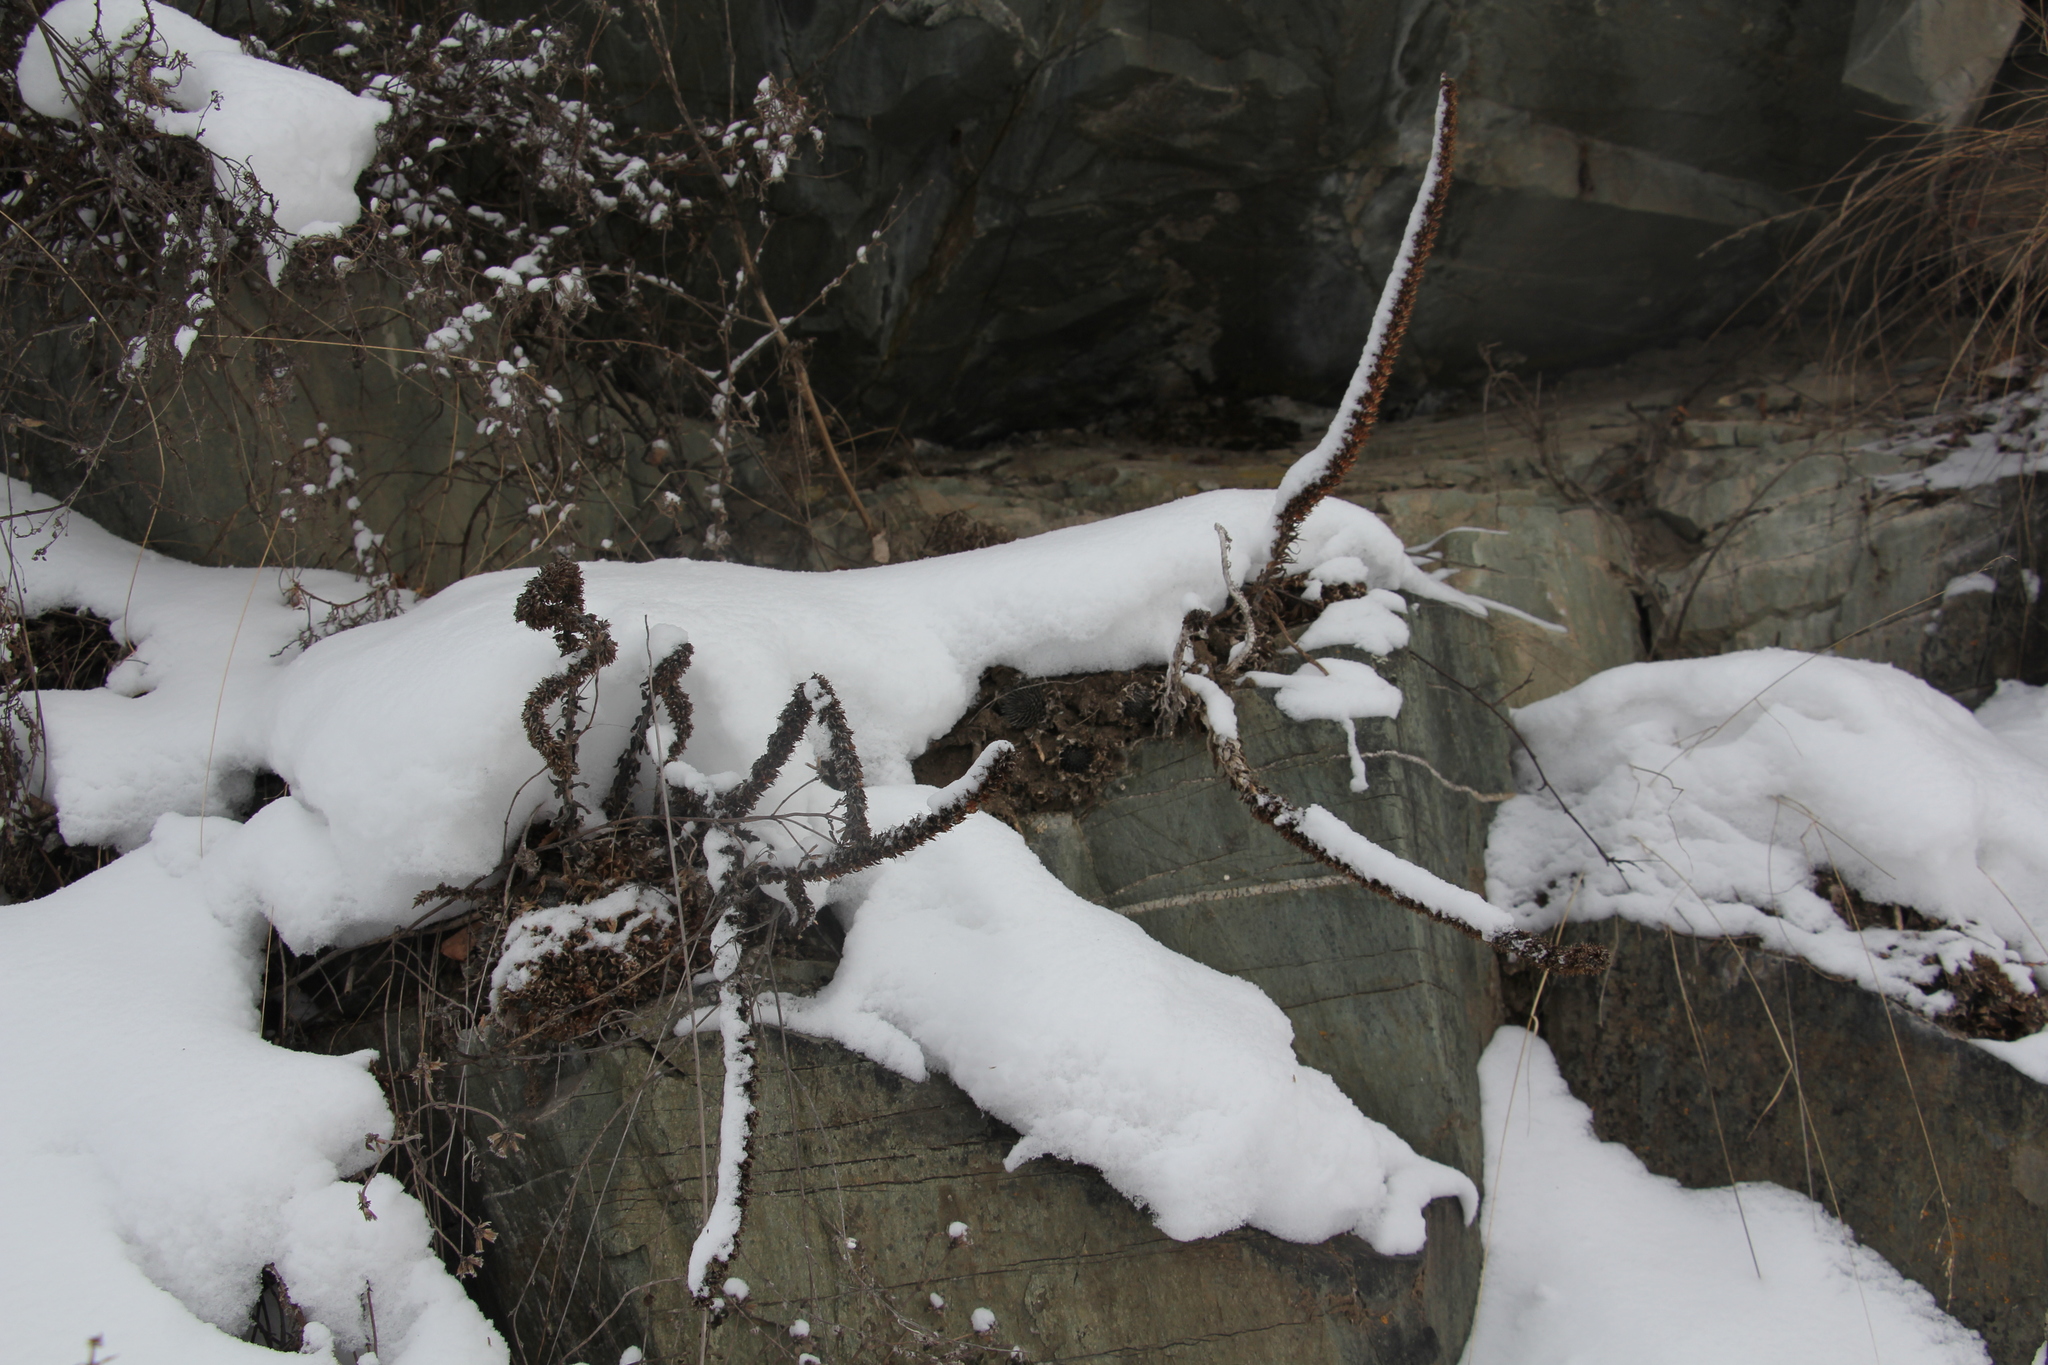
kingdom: Plantae
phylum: Tracheophyta
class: Magnoliopsida
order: Saxifragales
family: Crassulaceae
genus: Orostachys
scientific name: Orostachys spinosa
